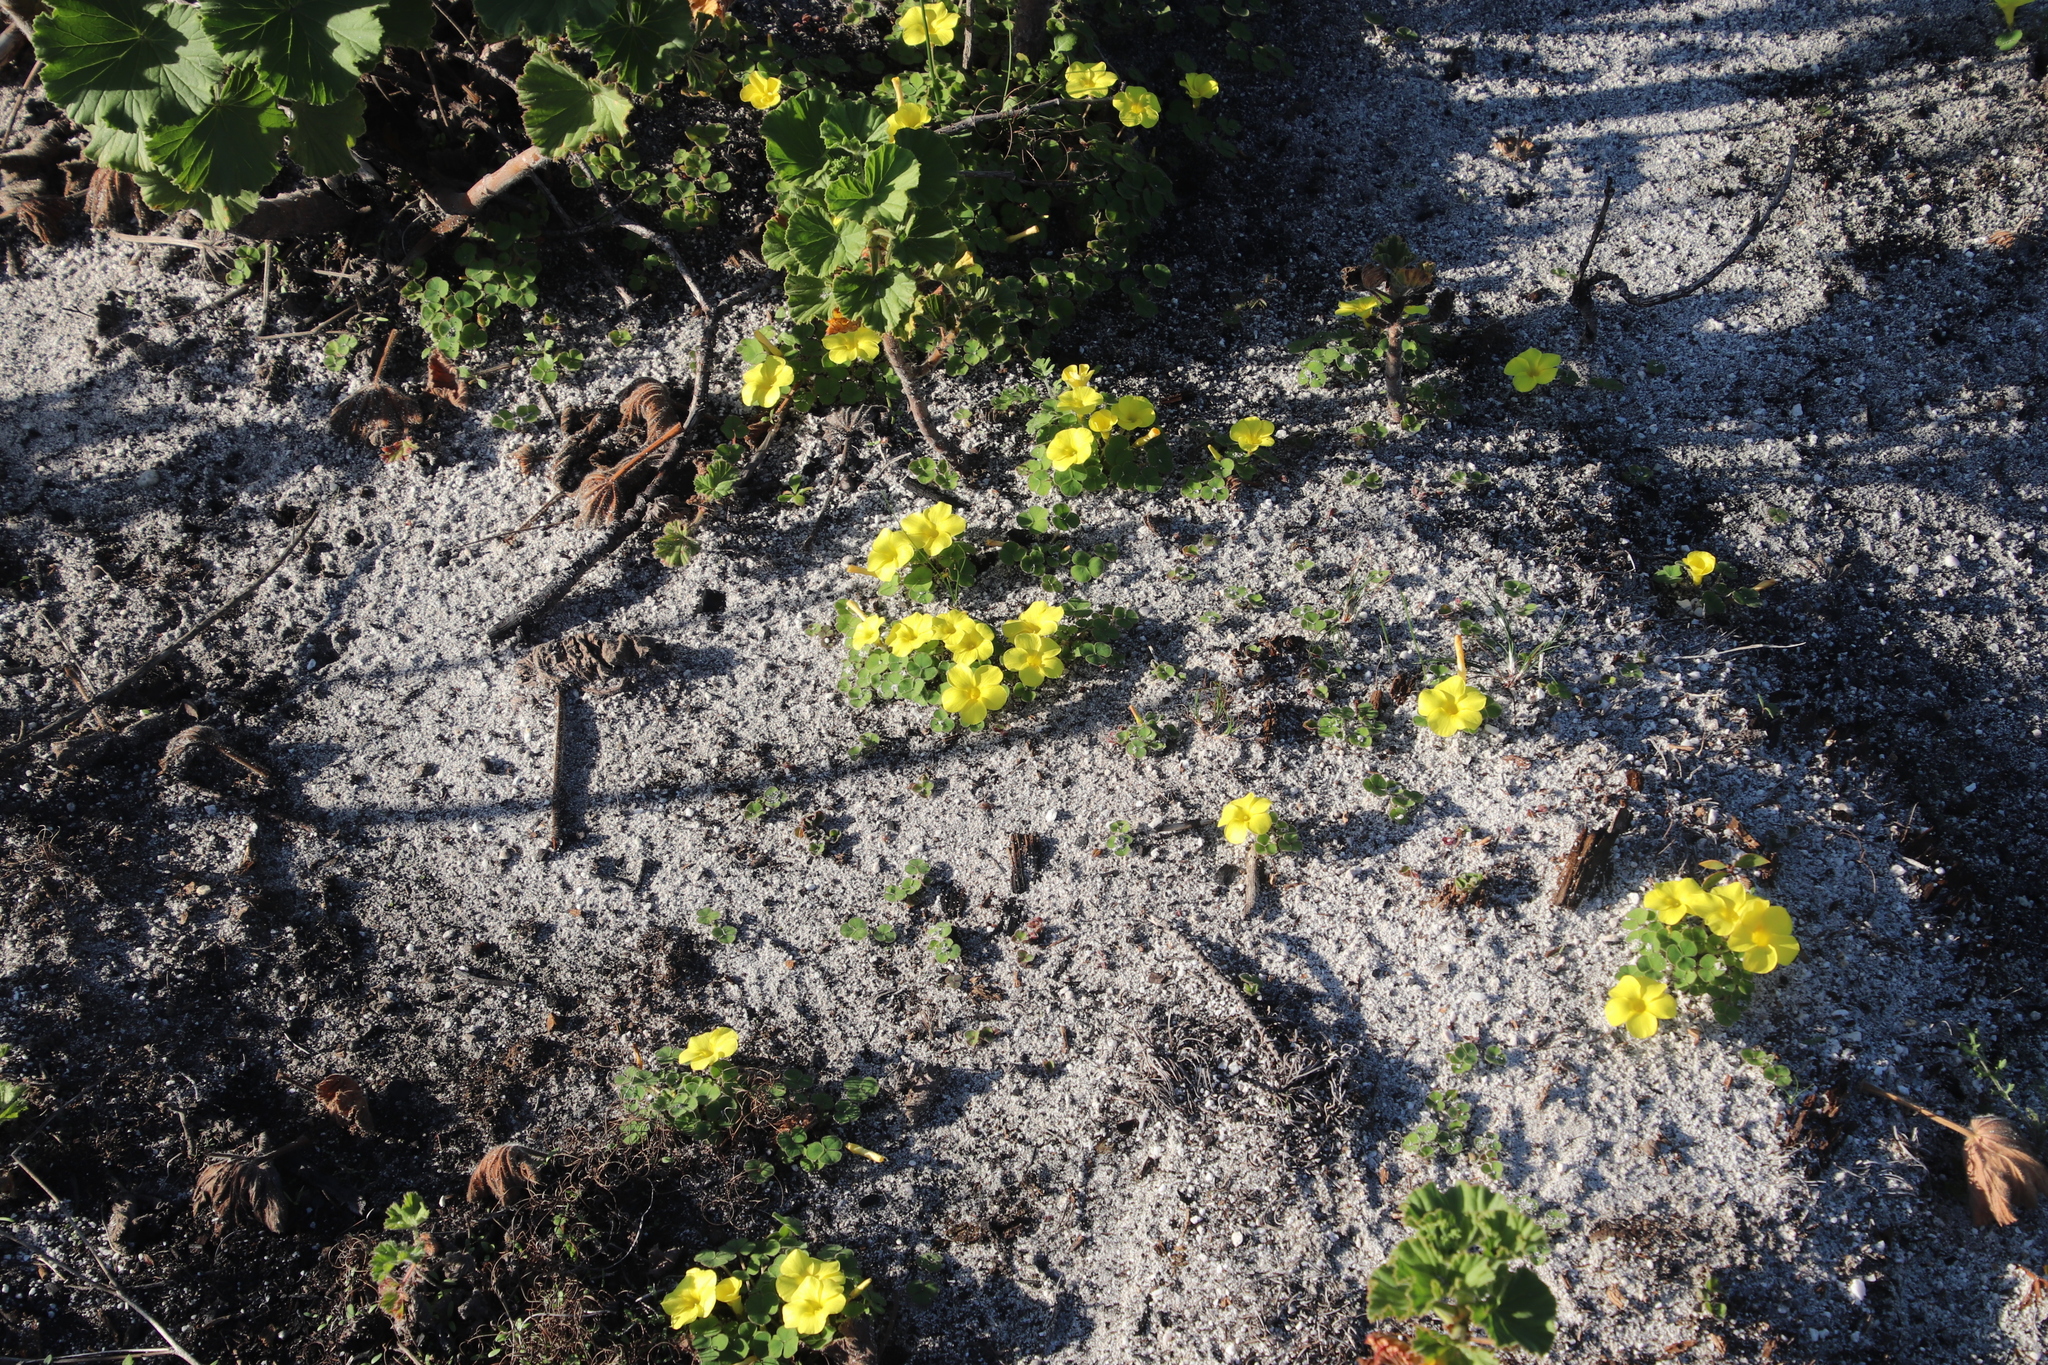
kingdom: Plantae
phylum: Tracheophyta
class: Magnoliopsida
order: Oxalidales
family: Oxalidaceae
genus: Oxalis
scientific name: Oxalis luteola
